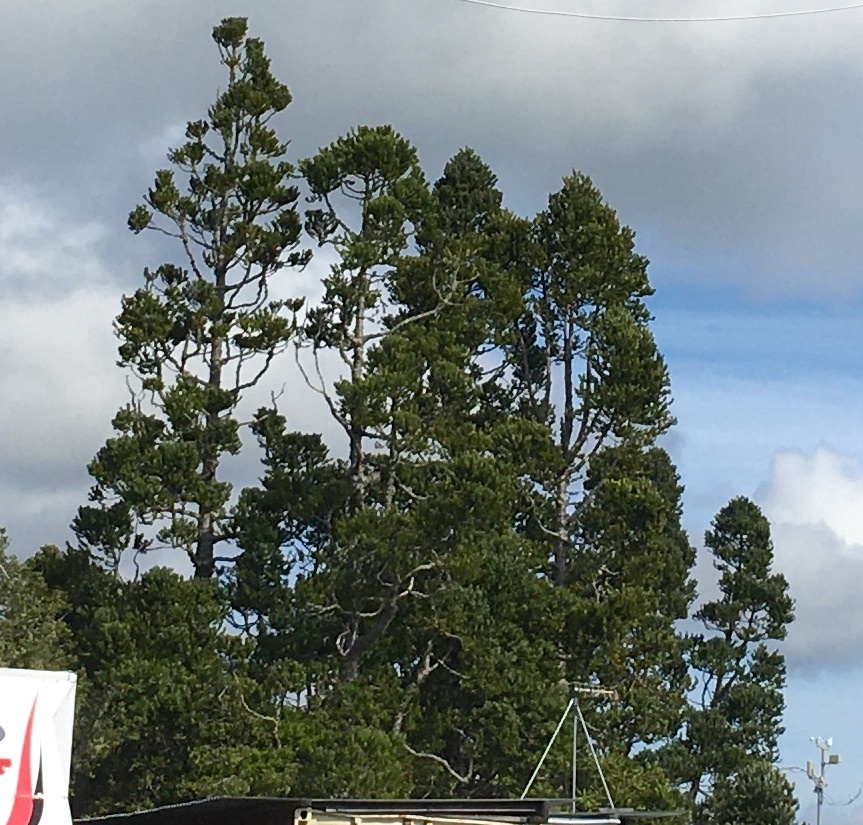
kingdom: Plantae
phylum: Tracheophyta
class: Pinopsida
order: Pinales
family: Araucariaceae
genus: Agathis
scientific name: Agathis australis
